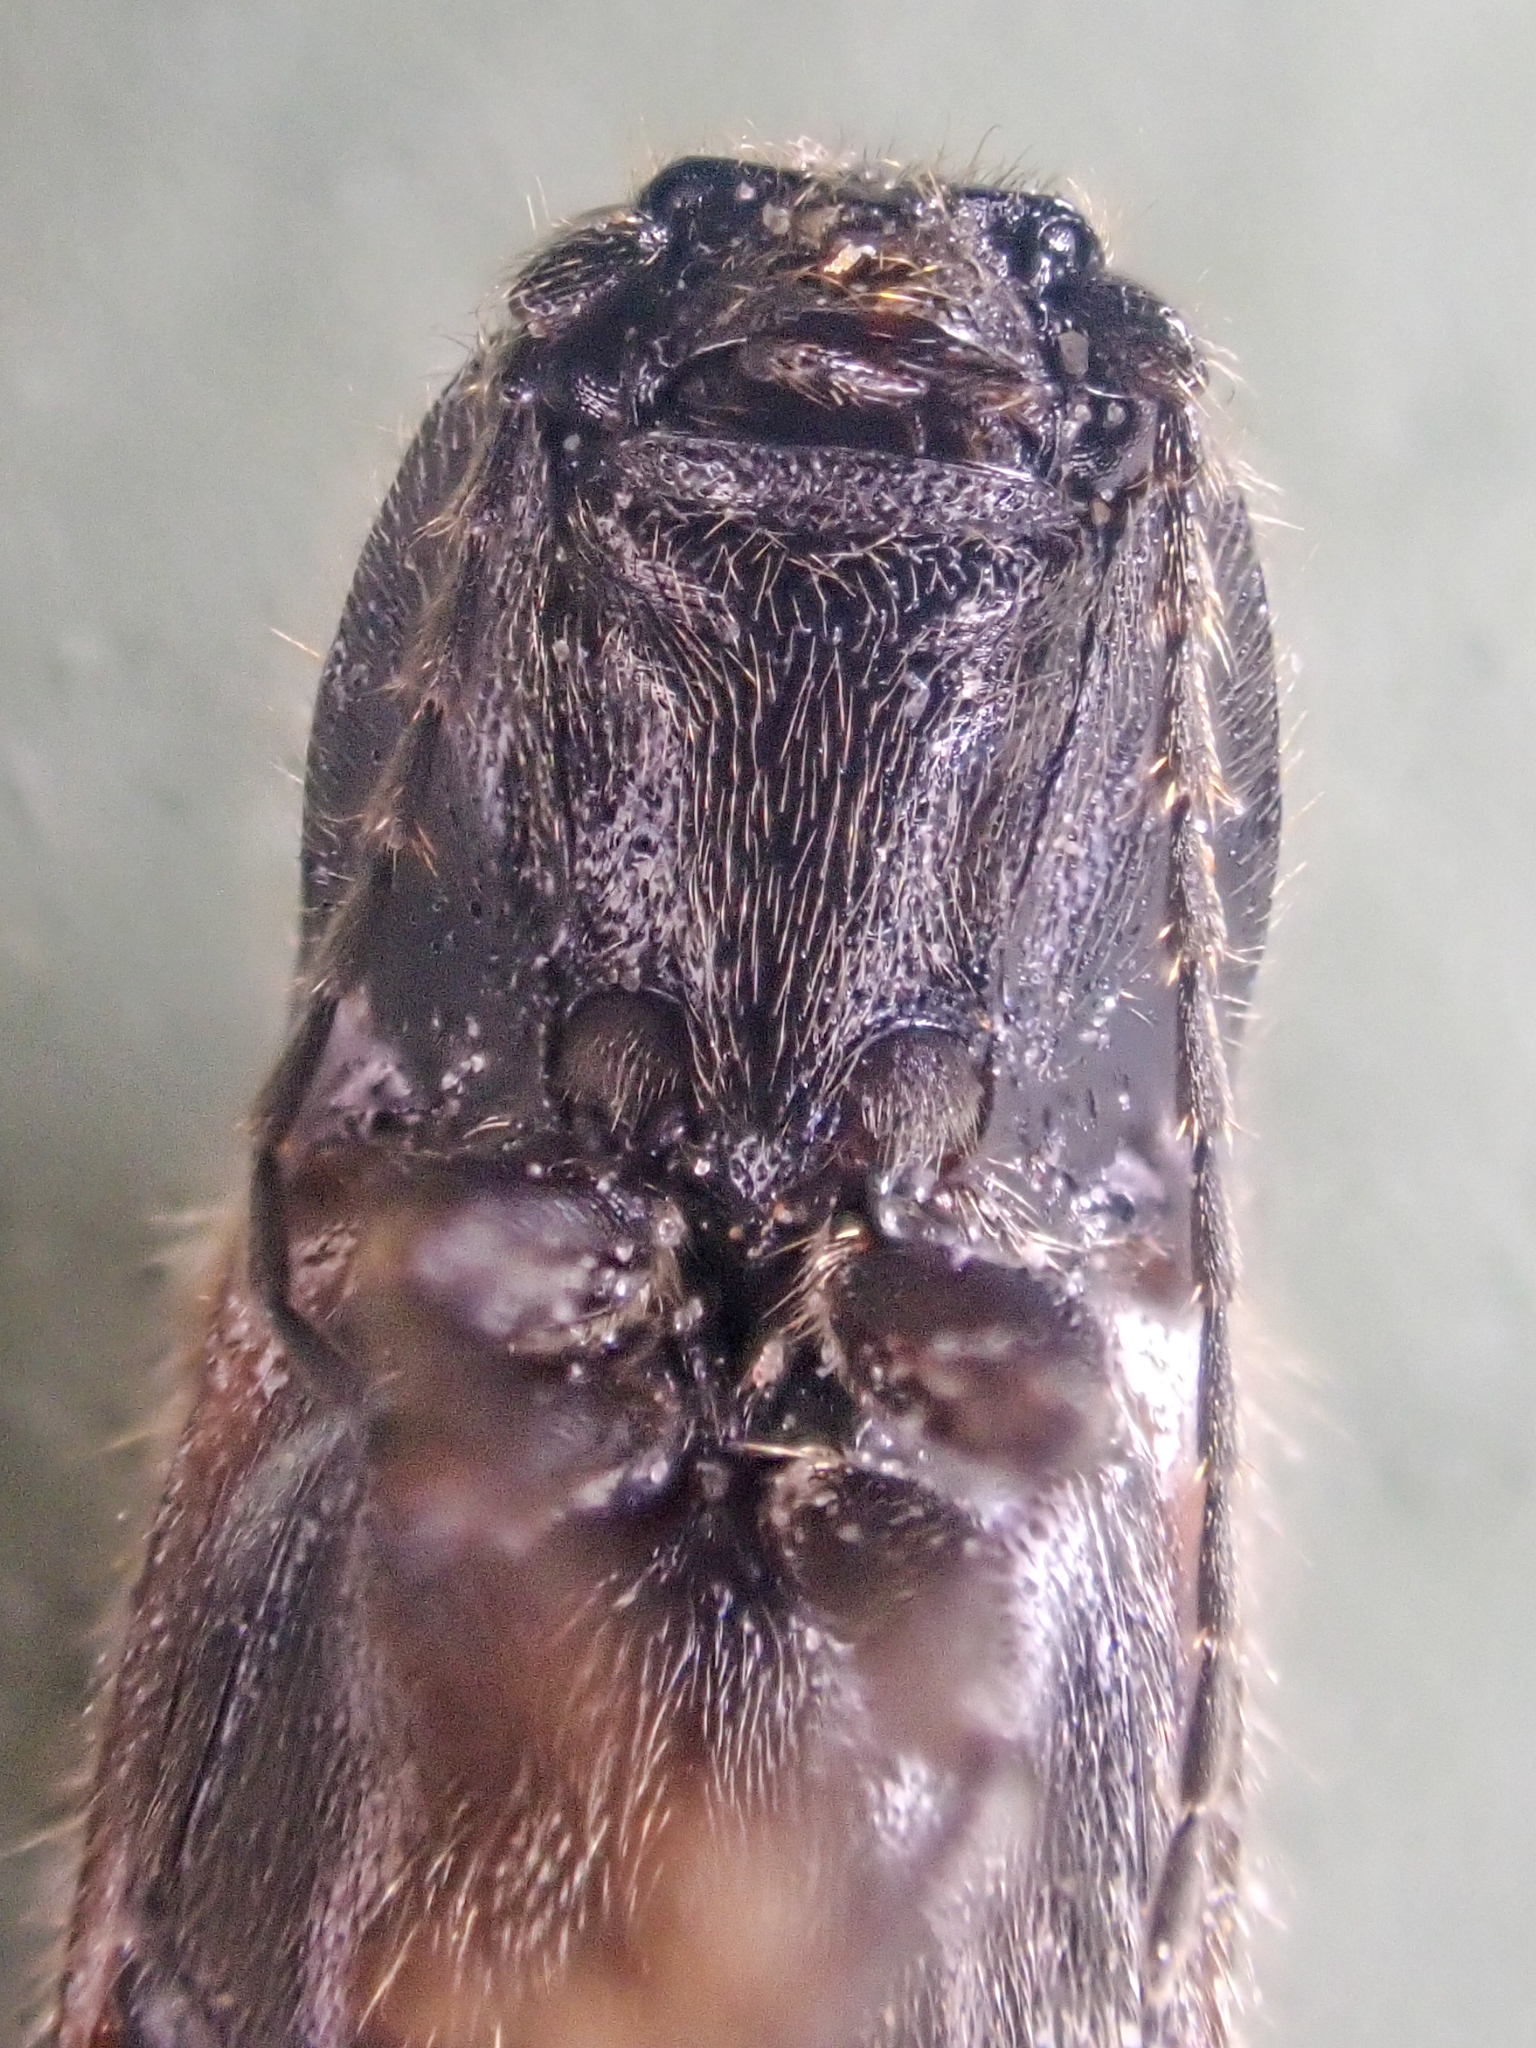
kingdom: Animalia
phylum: Arthropoda
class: Insecta
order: Coleoptera
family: Elateridae
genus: Hemicrepidius
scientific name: Hemicrepidius pallidipennis
